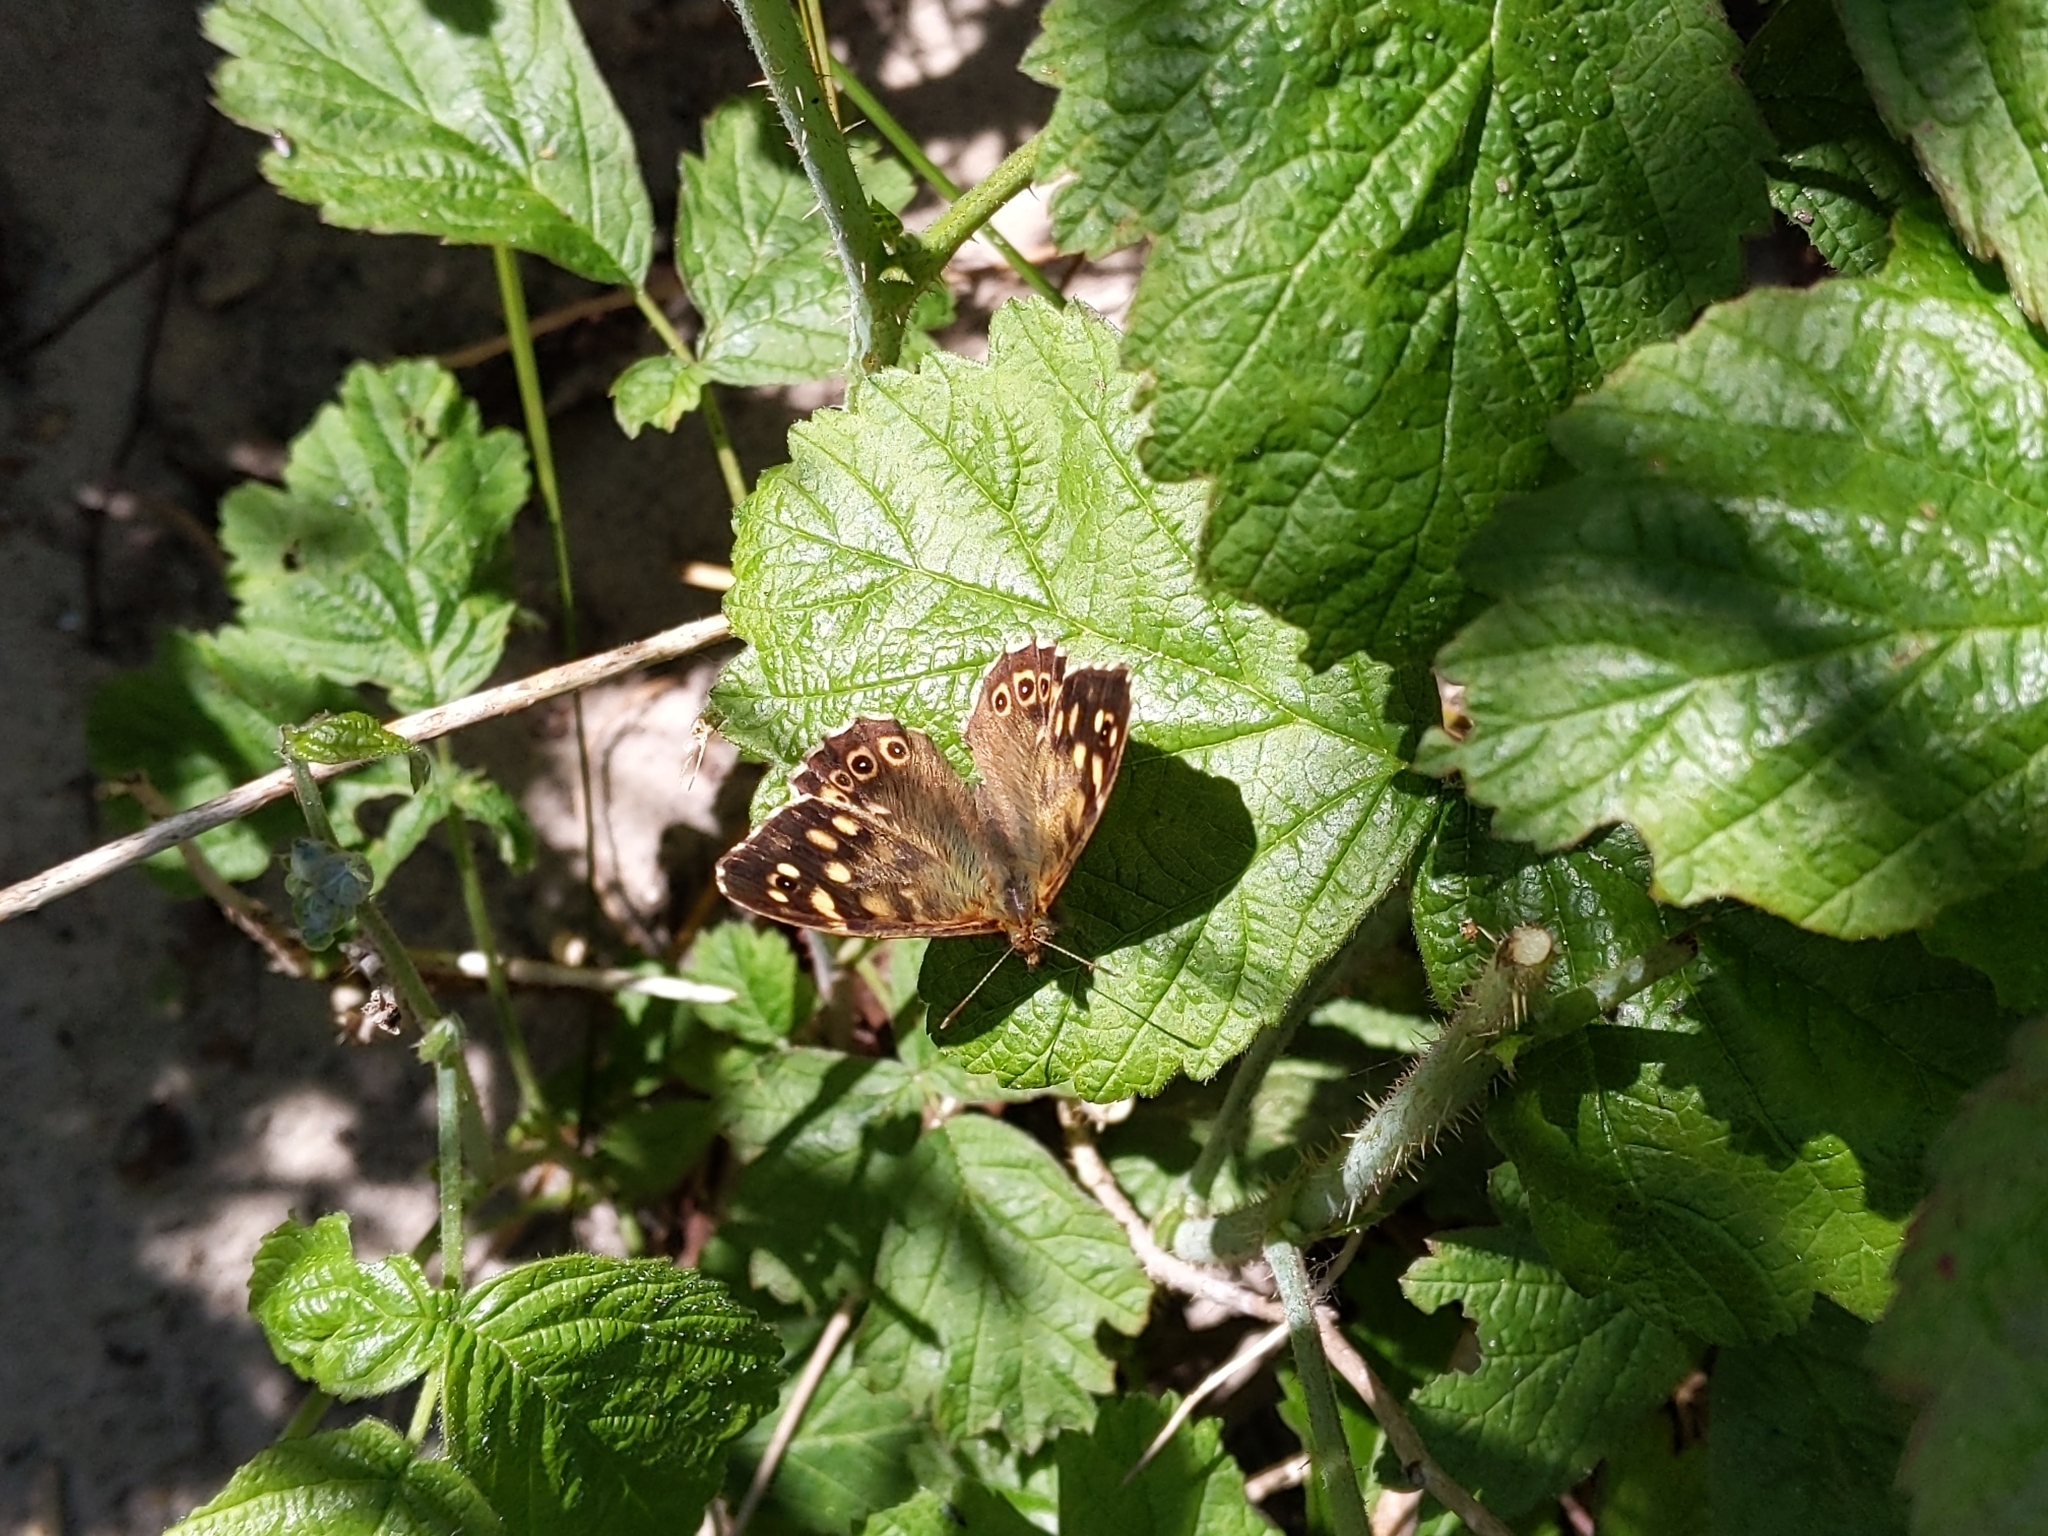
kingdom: Animalia
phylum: Arthropoda
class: Insecta
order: Lepidoptera
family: Nymphalidae
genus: Pararge
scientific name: Pararge aegeria
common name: Speckled wood
